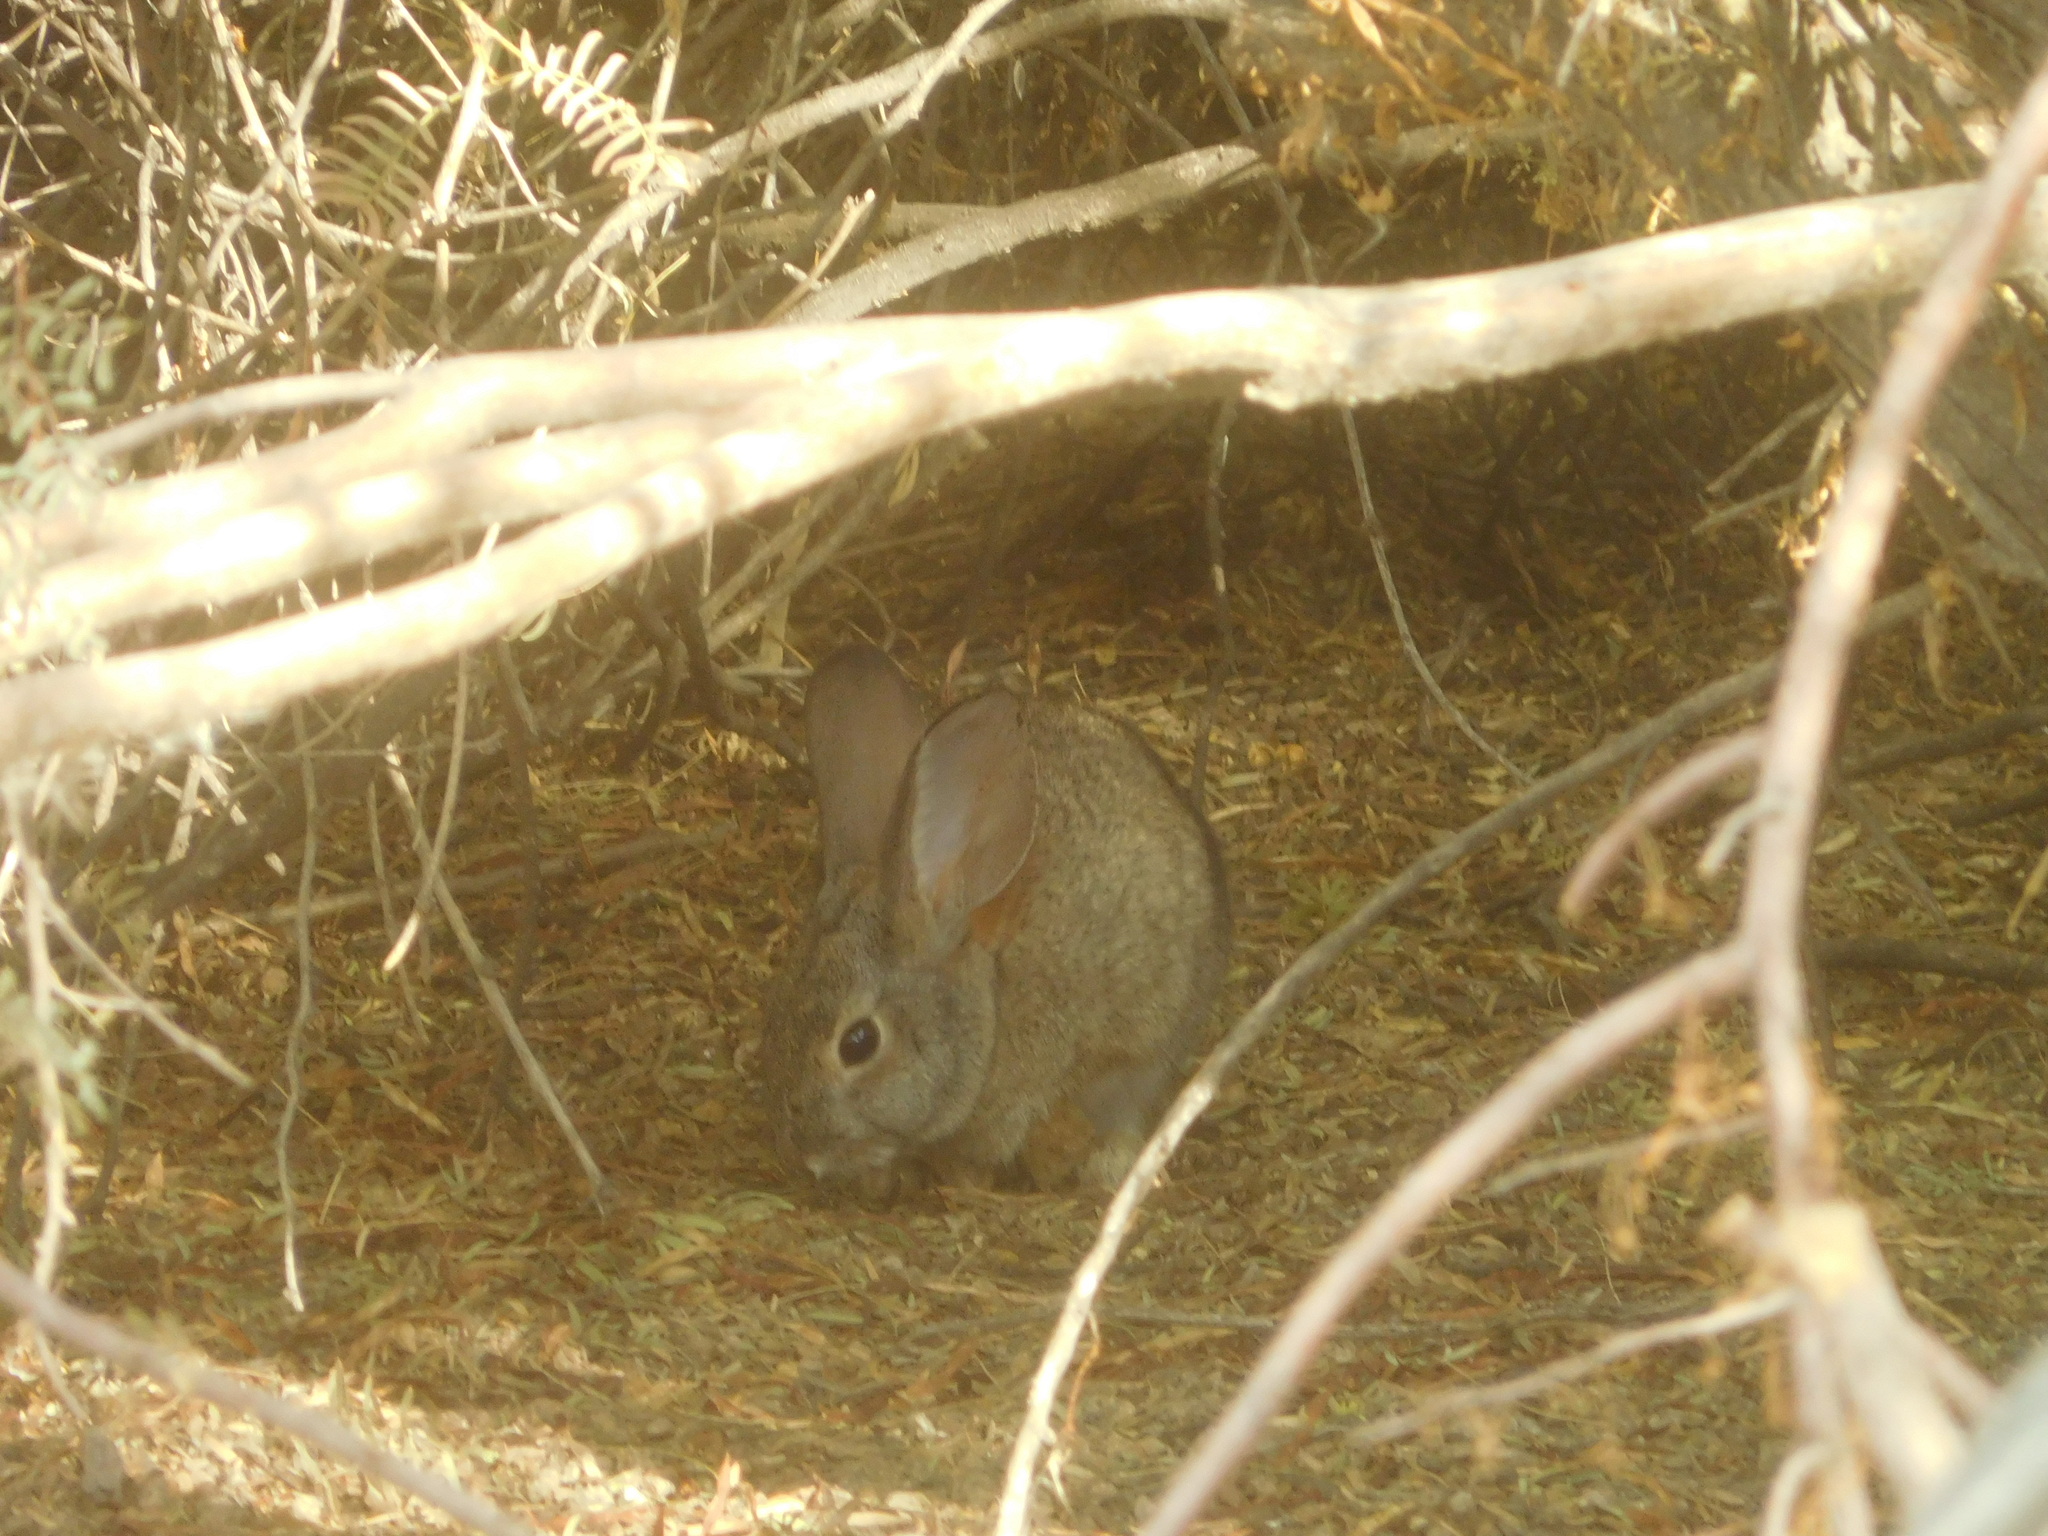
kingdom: Animalia
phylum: Chordata
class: Mammalia
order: Lagomorpha
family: Leporidae
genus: Sylvilagus
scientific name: Sylvilagus audubonii
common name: Desert cottontail
